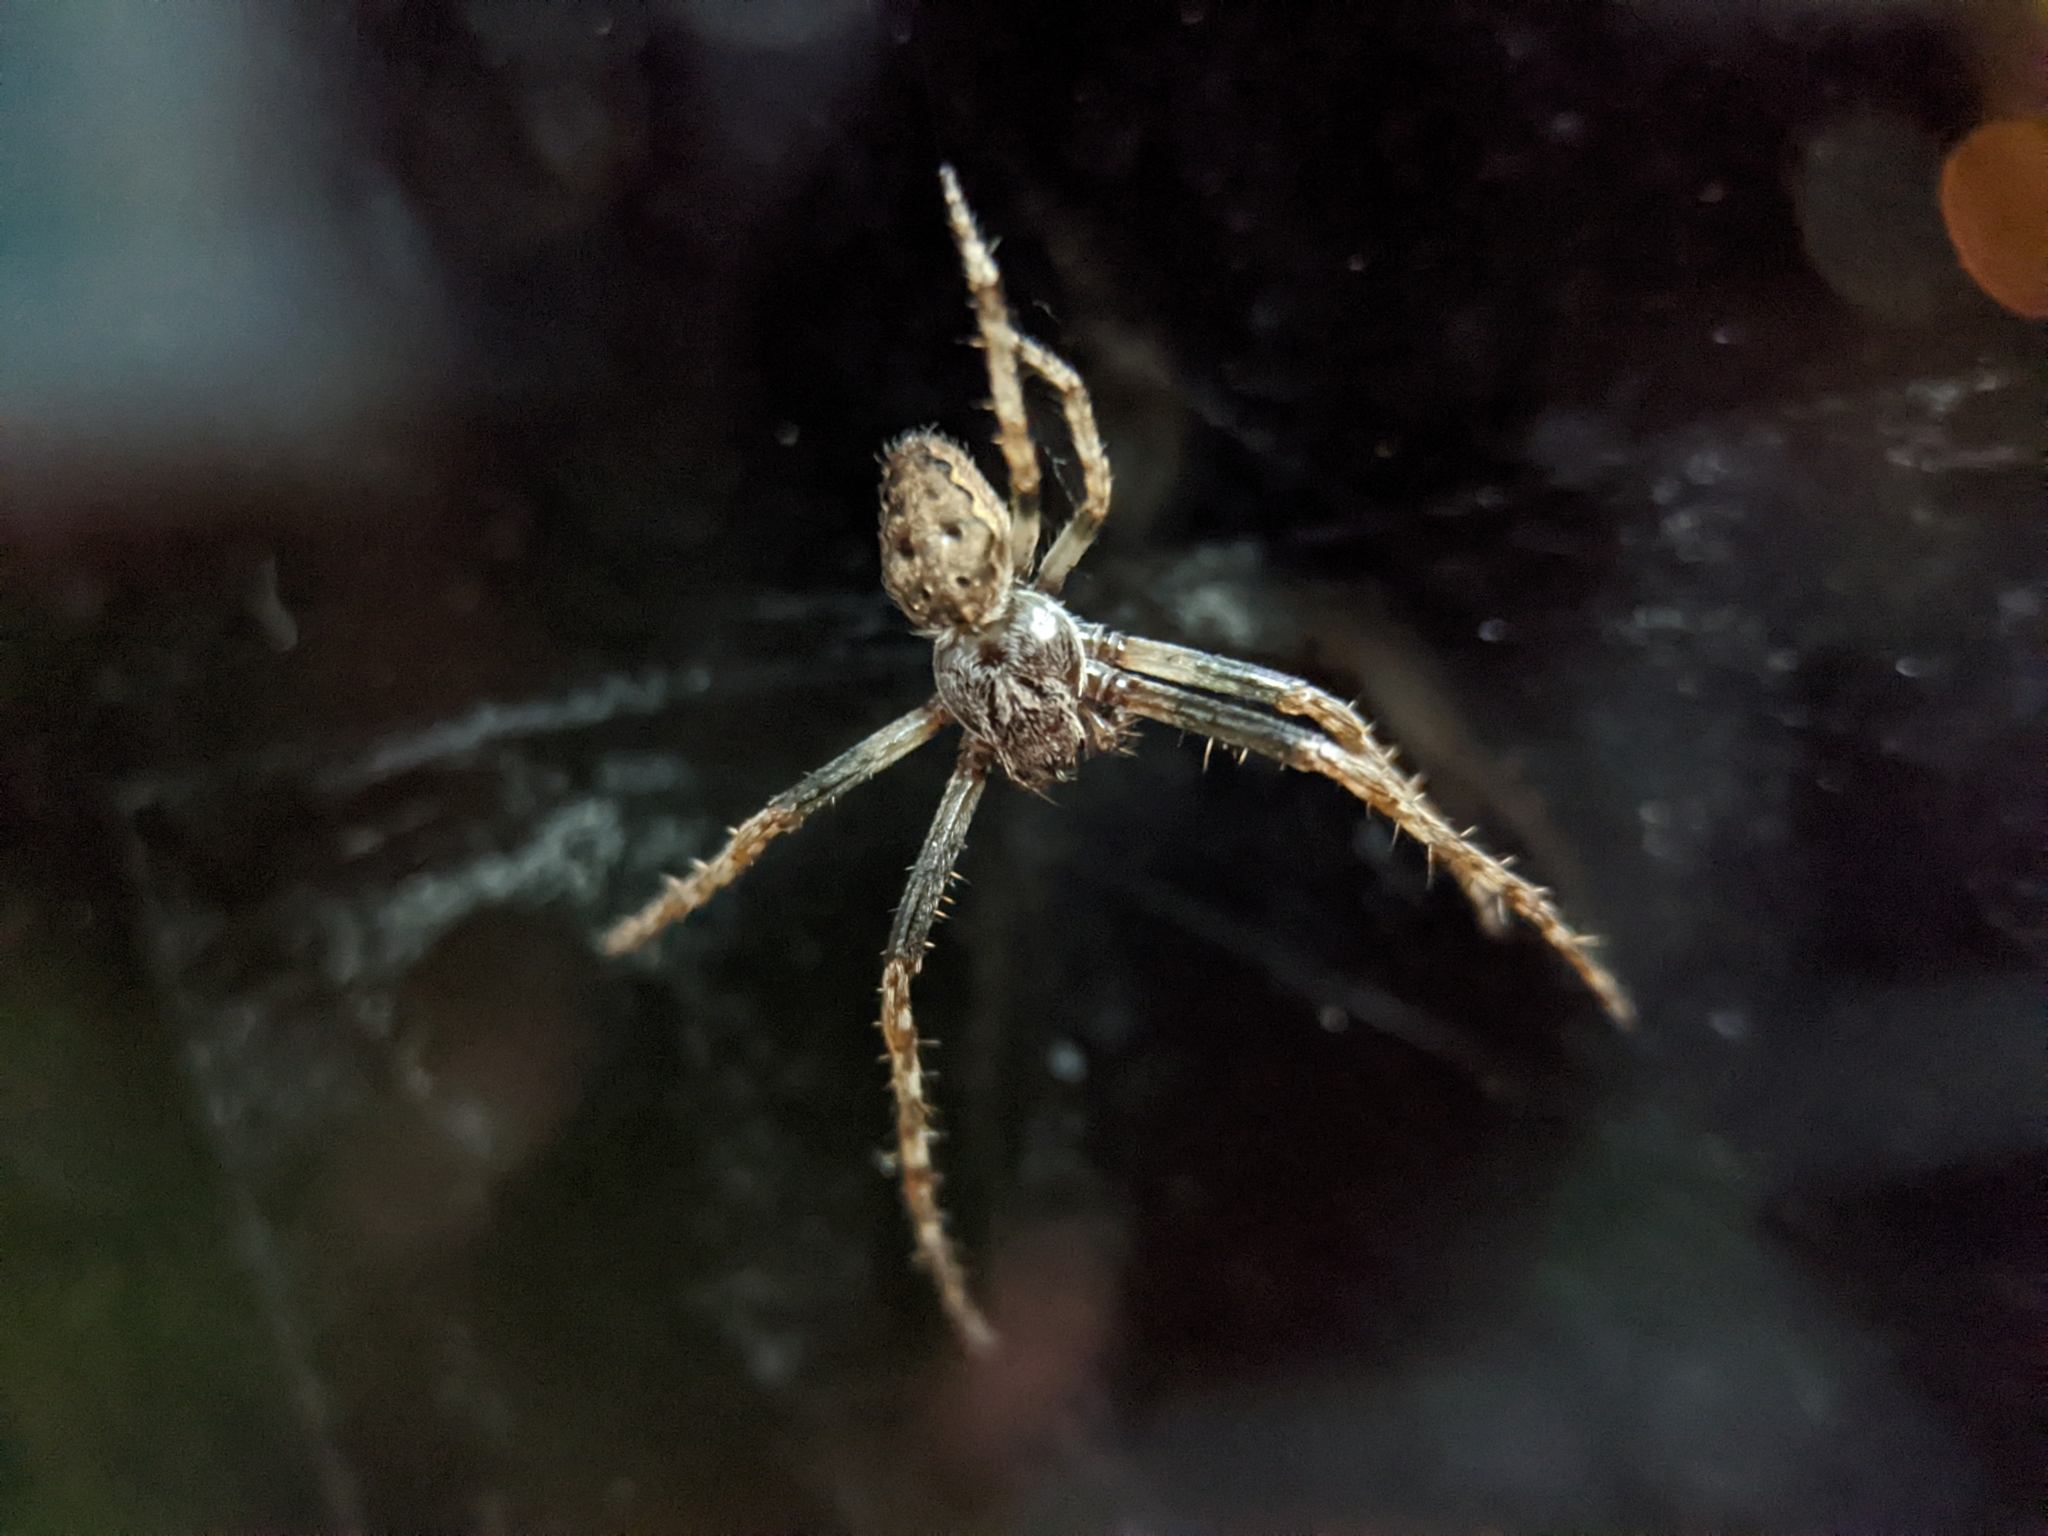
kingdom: Animalia
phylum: Arthropoda
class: Arachnida
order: Araneae
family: Araneidae
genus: Nuctenea
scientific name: Nuctenea umbratica
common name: Toad spider
